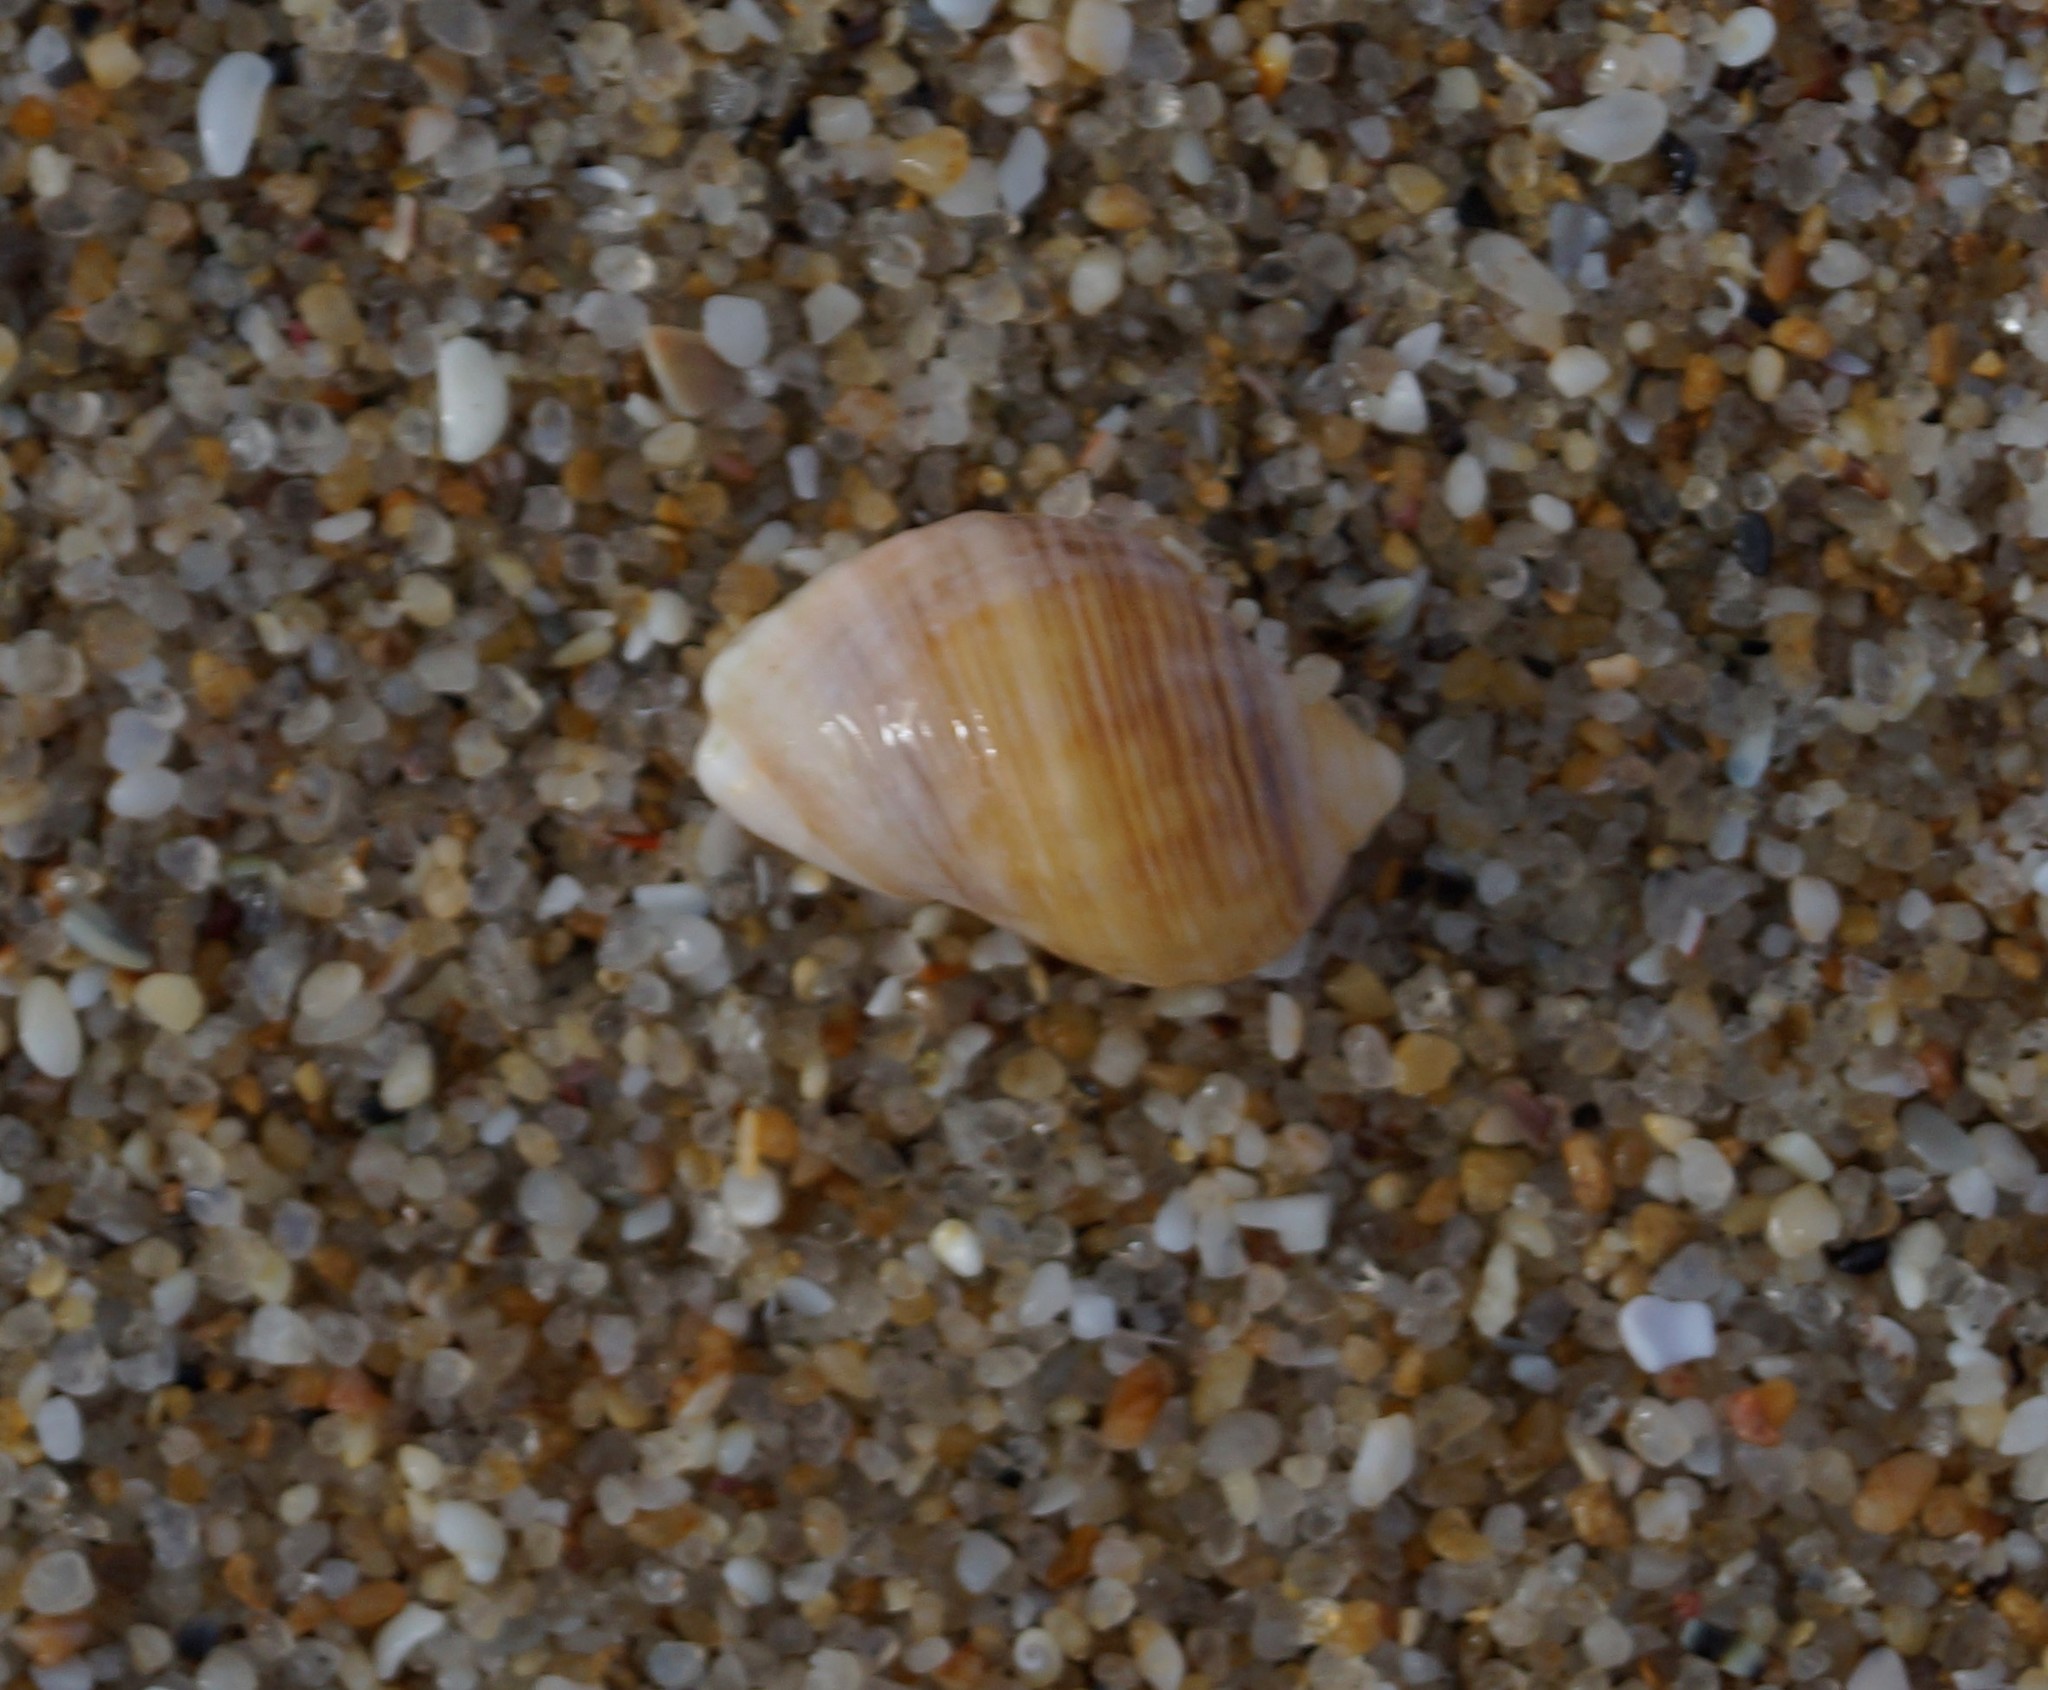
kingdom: Animalia
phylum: Mollusca
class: Gastropoda
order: Neogastropoda
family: Muricidae
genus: Dicathais
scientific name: Dicathais orbita
